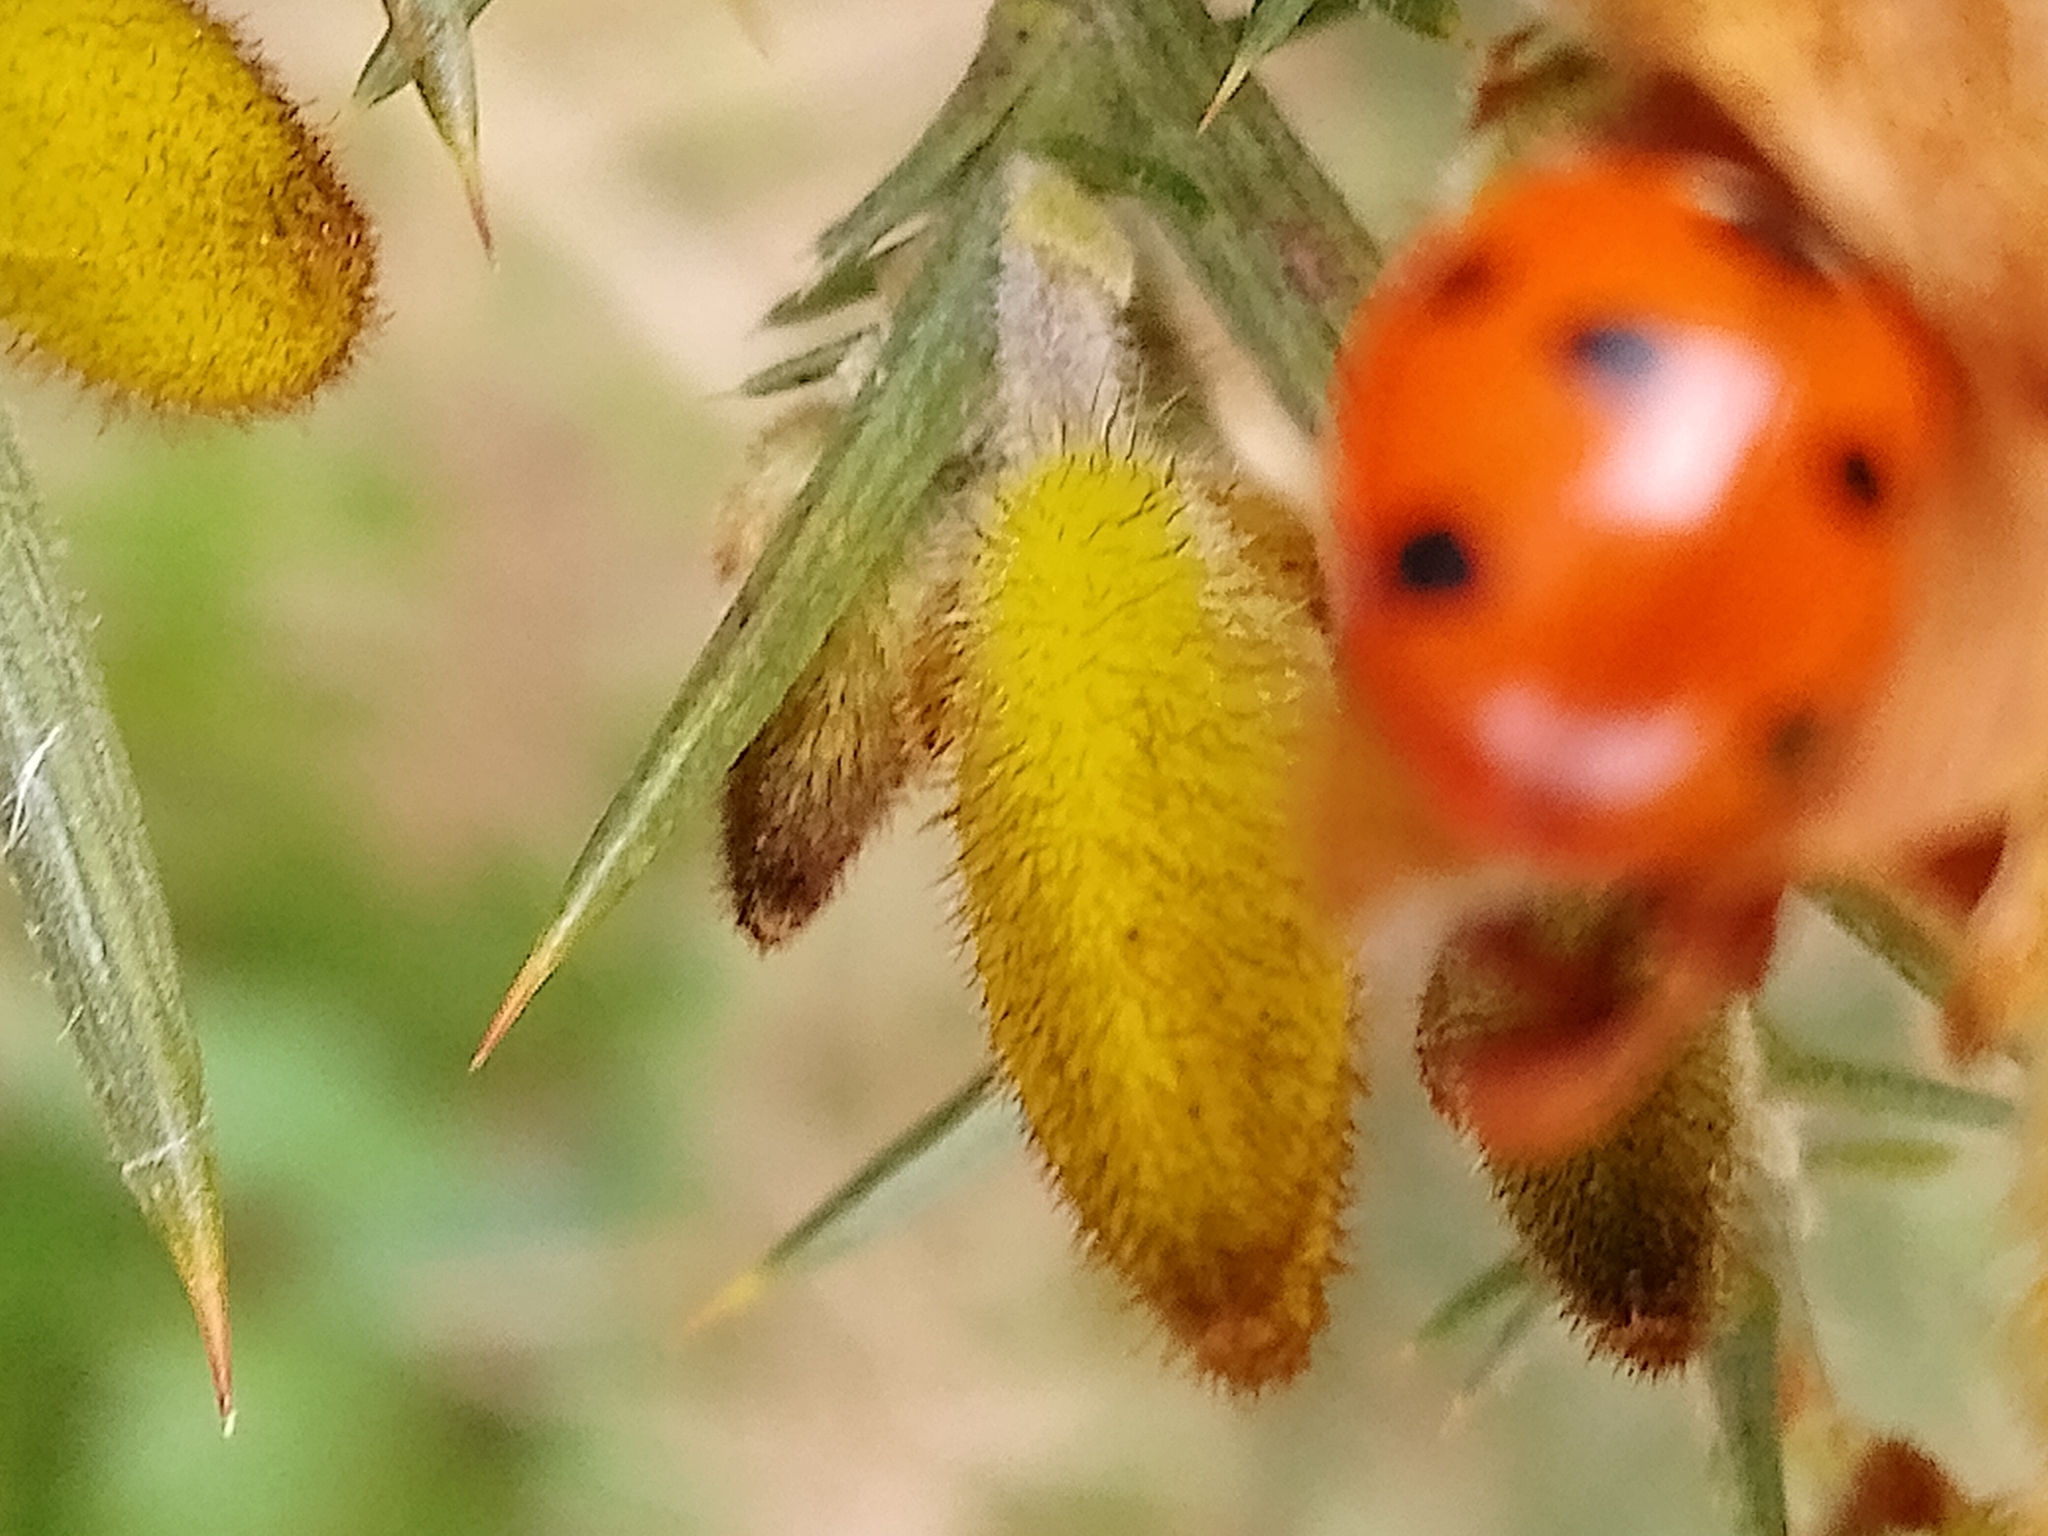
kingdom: Animalia
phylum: Arthropoda
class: Insecta
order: Coleoptera
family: Coccinellidae
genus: Coccinella
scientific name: Coccinella septempunctata
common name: Sevenspotted lady beetle
